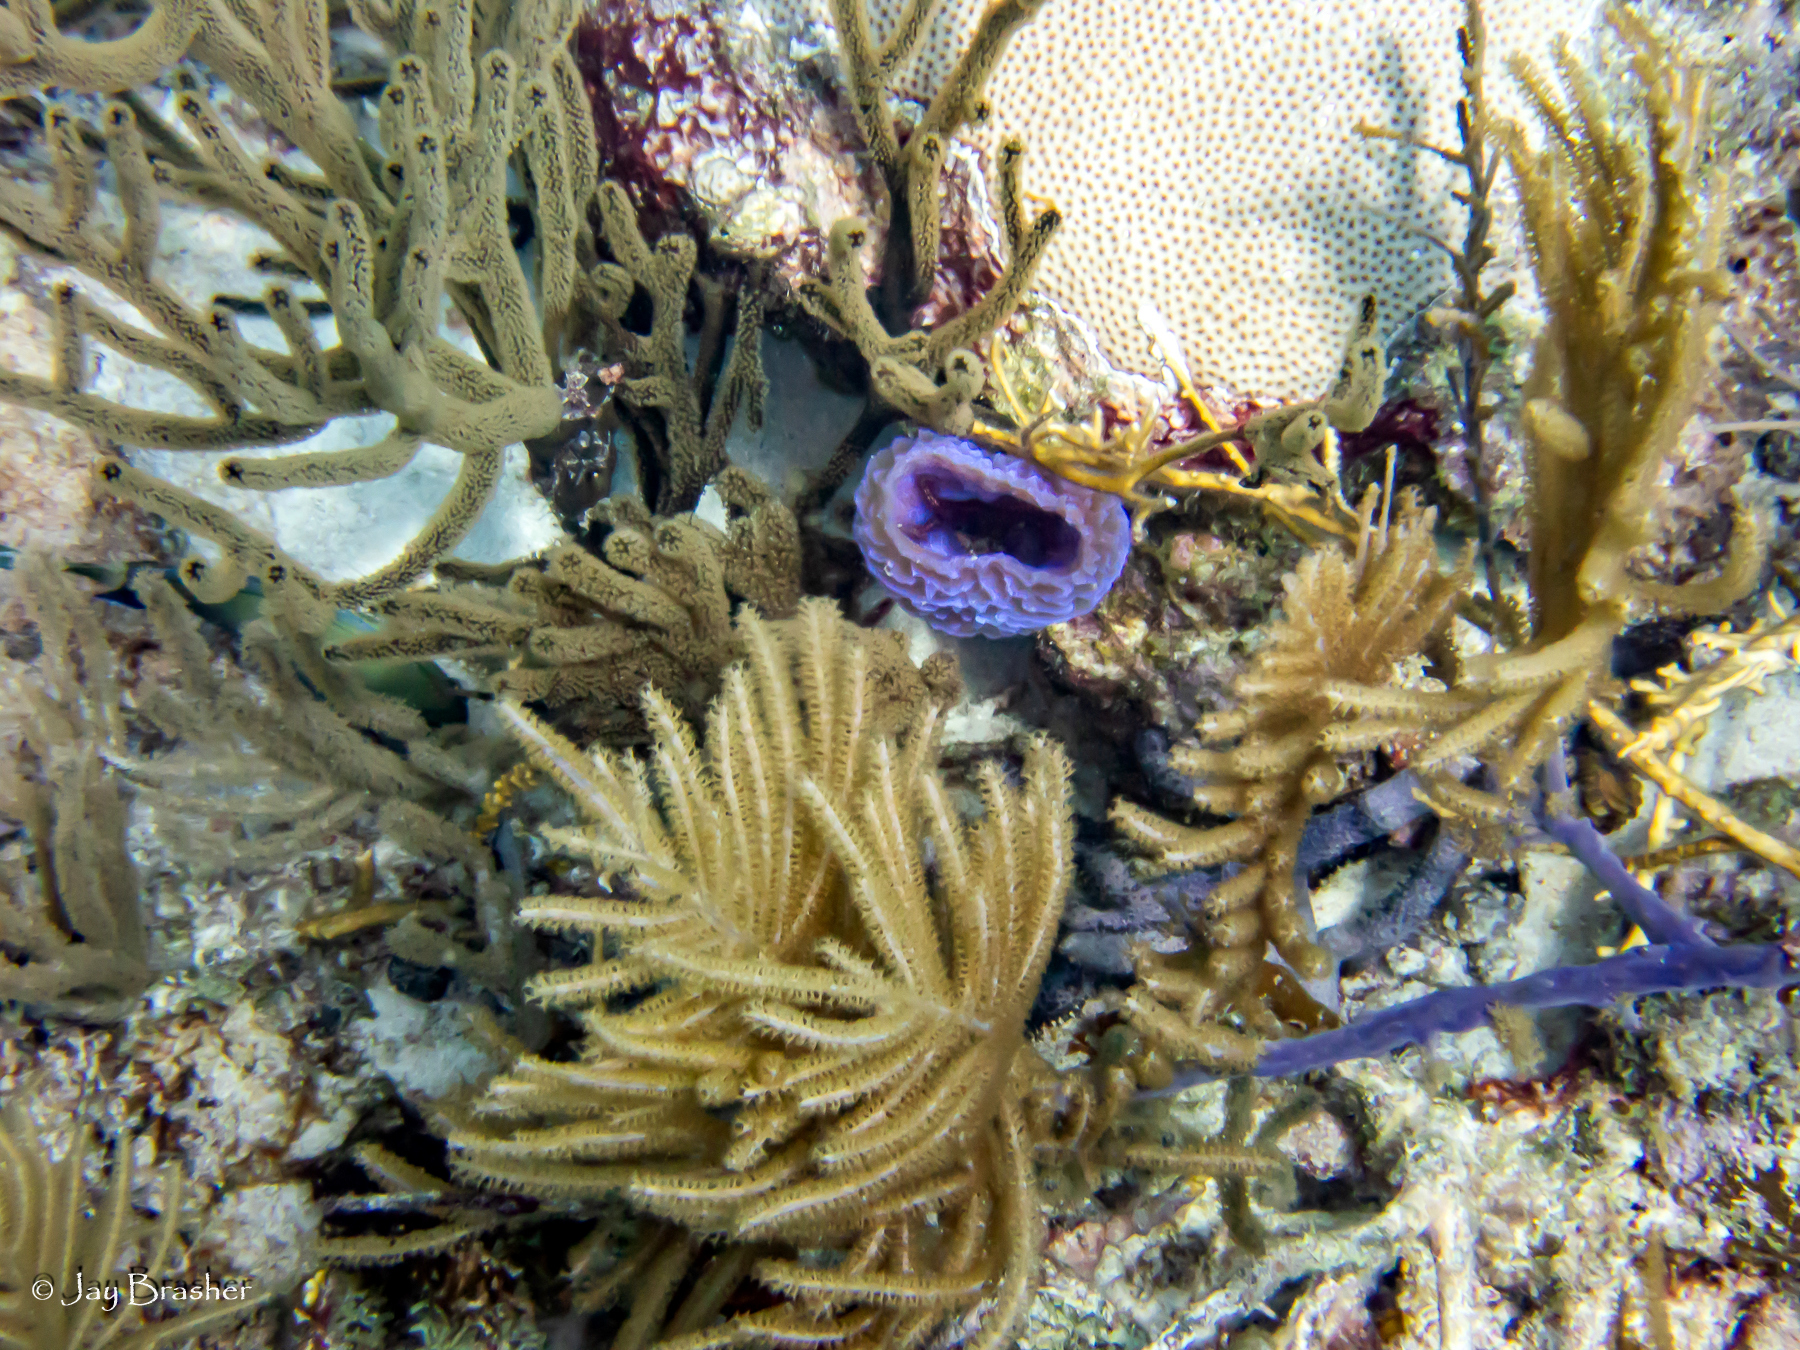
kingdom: Animalia
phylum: Cnidaria
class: Anthozoa
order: Scleractinia
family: Rhizangiidae
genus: Siderastrea
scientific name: Siderastrea siderea
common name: Massive starlet coral
